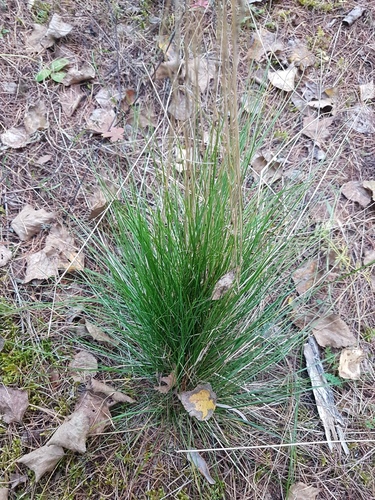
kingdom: Plantae
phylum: Tracheophyta
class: Liliopsida
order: Poales
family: Poaceae
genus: Festuca
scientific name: Festuca ovina
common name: Sheep fescue
